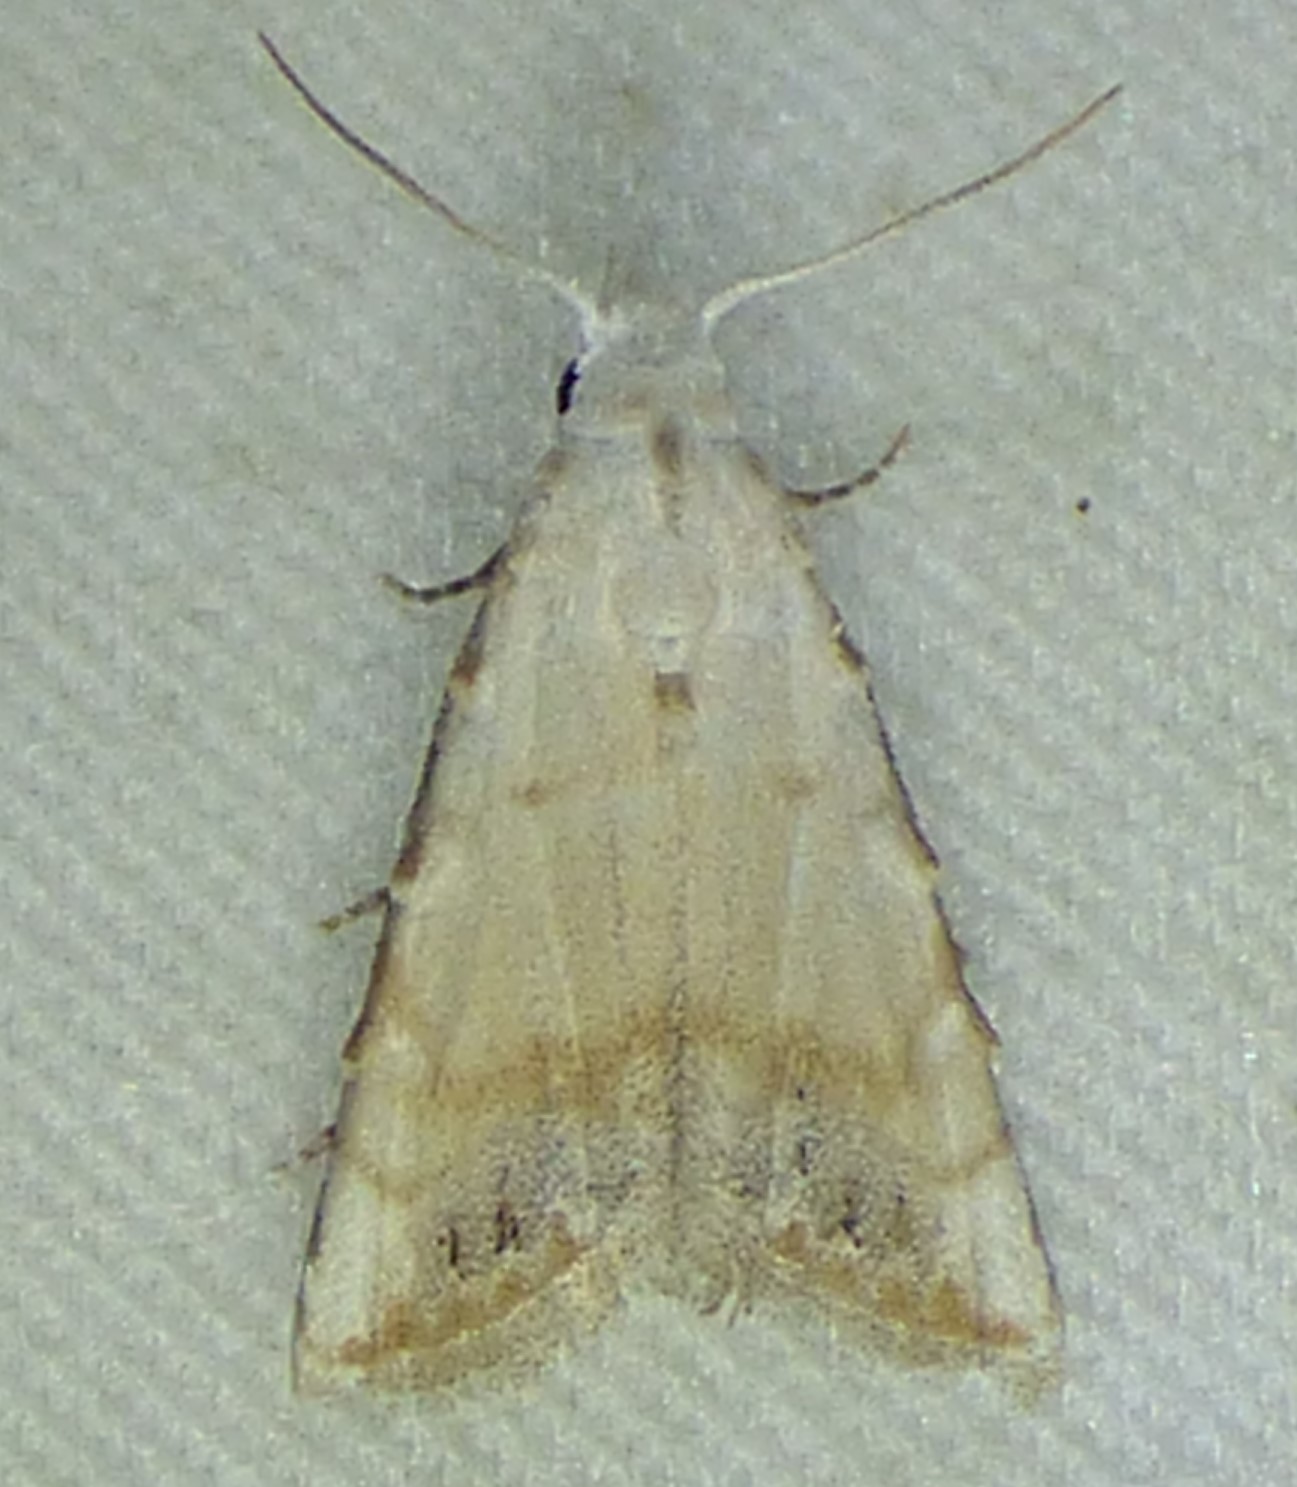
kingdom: Animalia
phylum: Arthropoda
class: Insecta
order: Lepidoptera
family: Nolidae
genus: Nola
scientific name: Nola cereella
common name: Sorghum webworm moth
